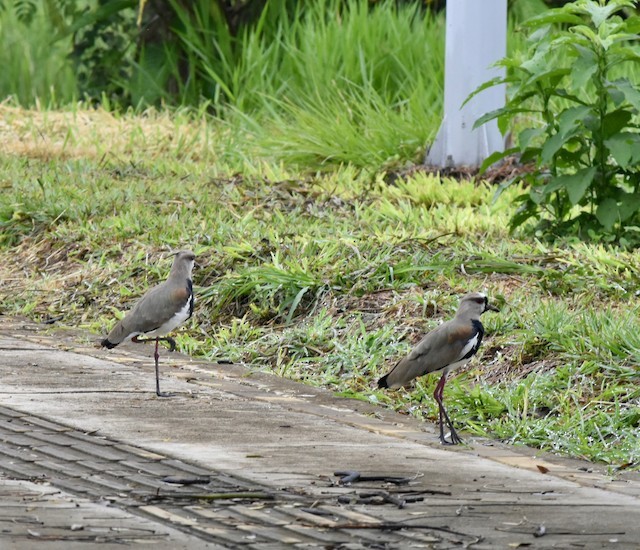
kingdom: Animalia
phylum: Chordata
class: Aves
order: Charadriiformes
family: Charadriidae
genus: Vanellus
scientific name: Vanellus chilensis
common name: Southern lapwing
